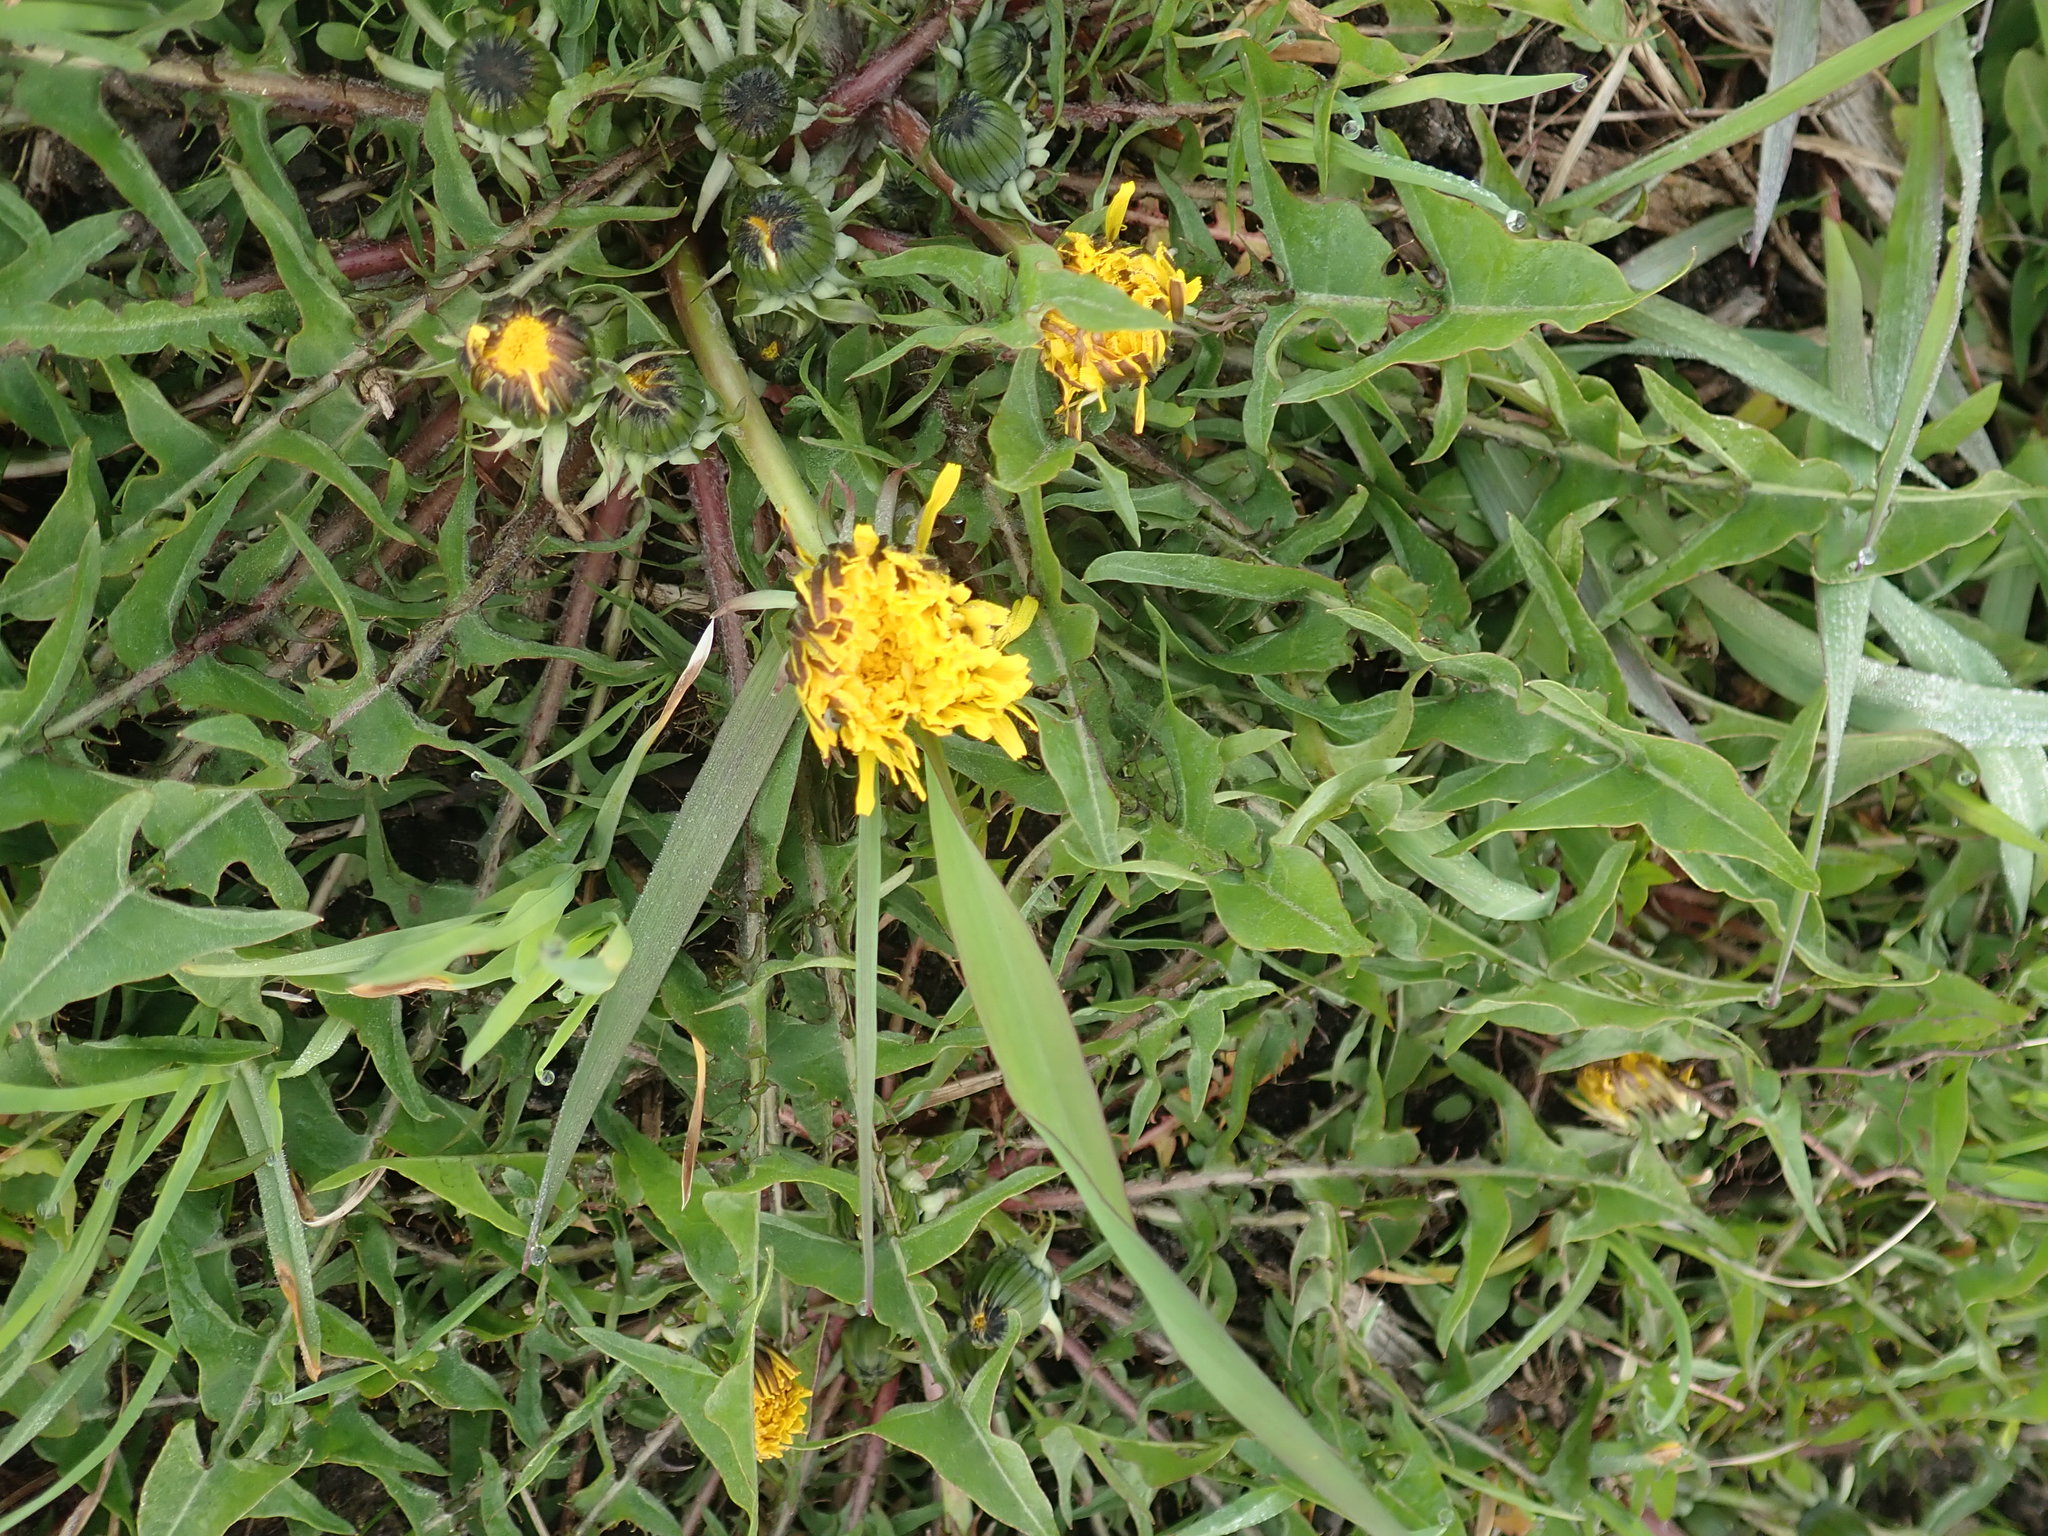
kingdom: Plantae
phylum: Tracheophyta
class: Magnoliopsida
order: Asterales
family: Asteraceae
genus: Taraxacum
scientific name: Taraxacum officinale
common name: Common dandelion
